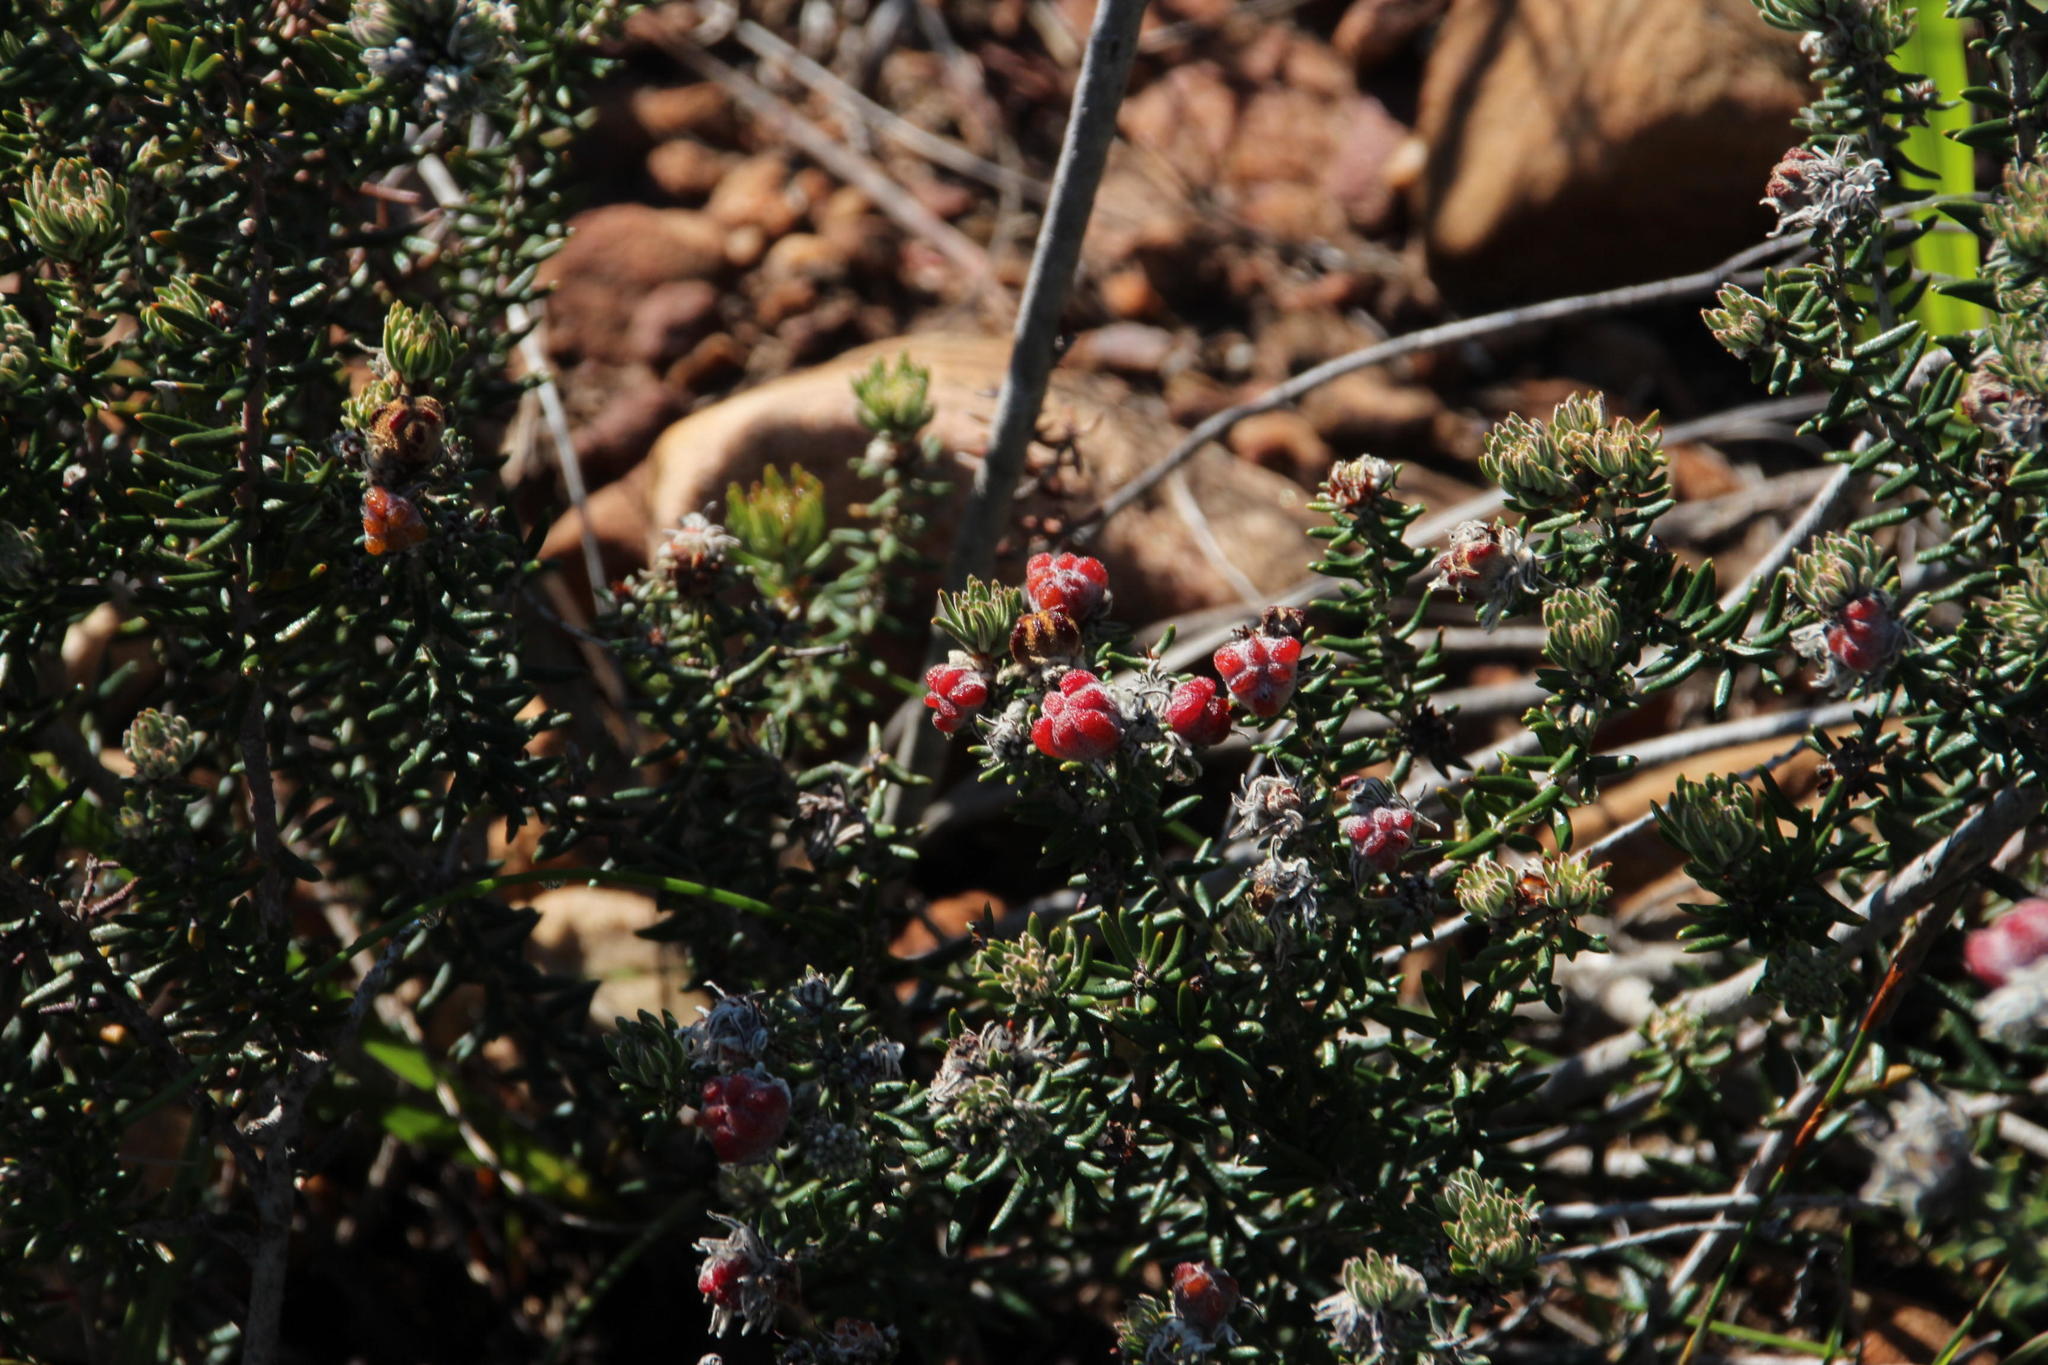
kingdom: Plantae
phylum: Tracheophyta
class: Magnoliopsida
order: Rosales
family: Rhamnaceae
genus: Trichocephalus
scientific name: Trichocephalus stipularis
